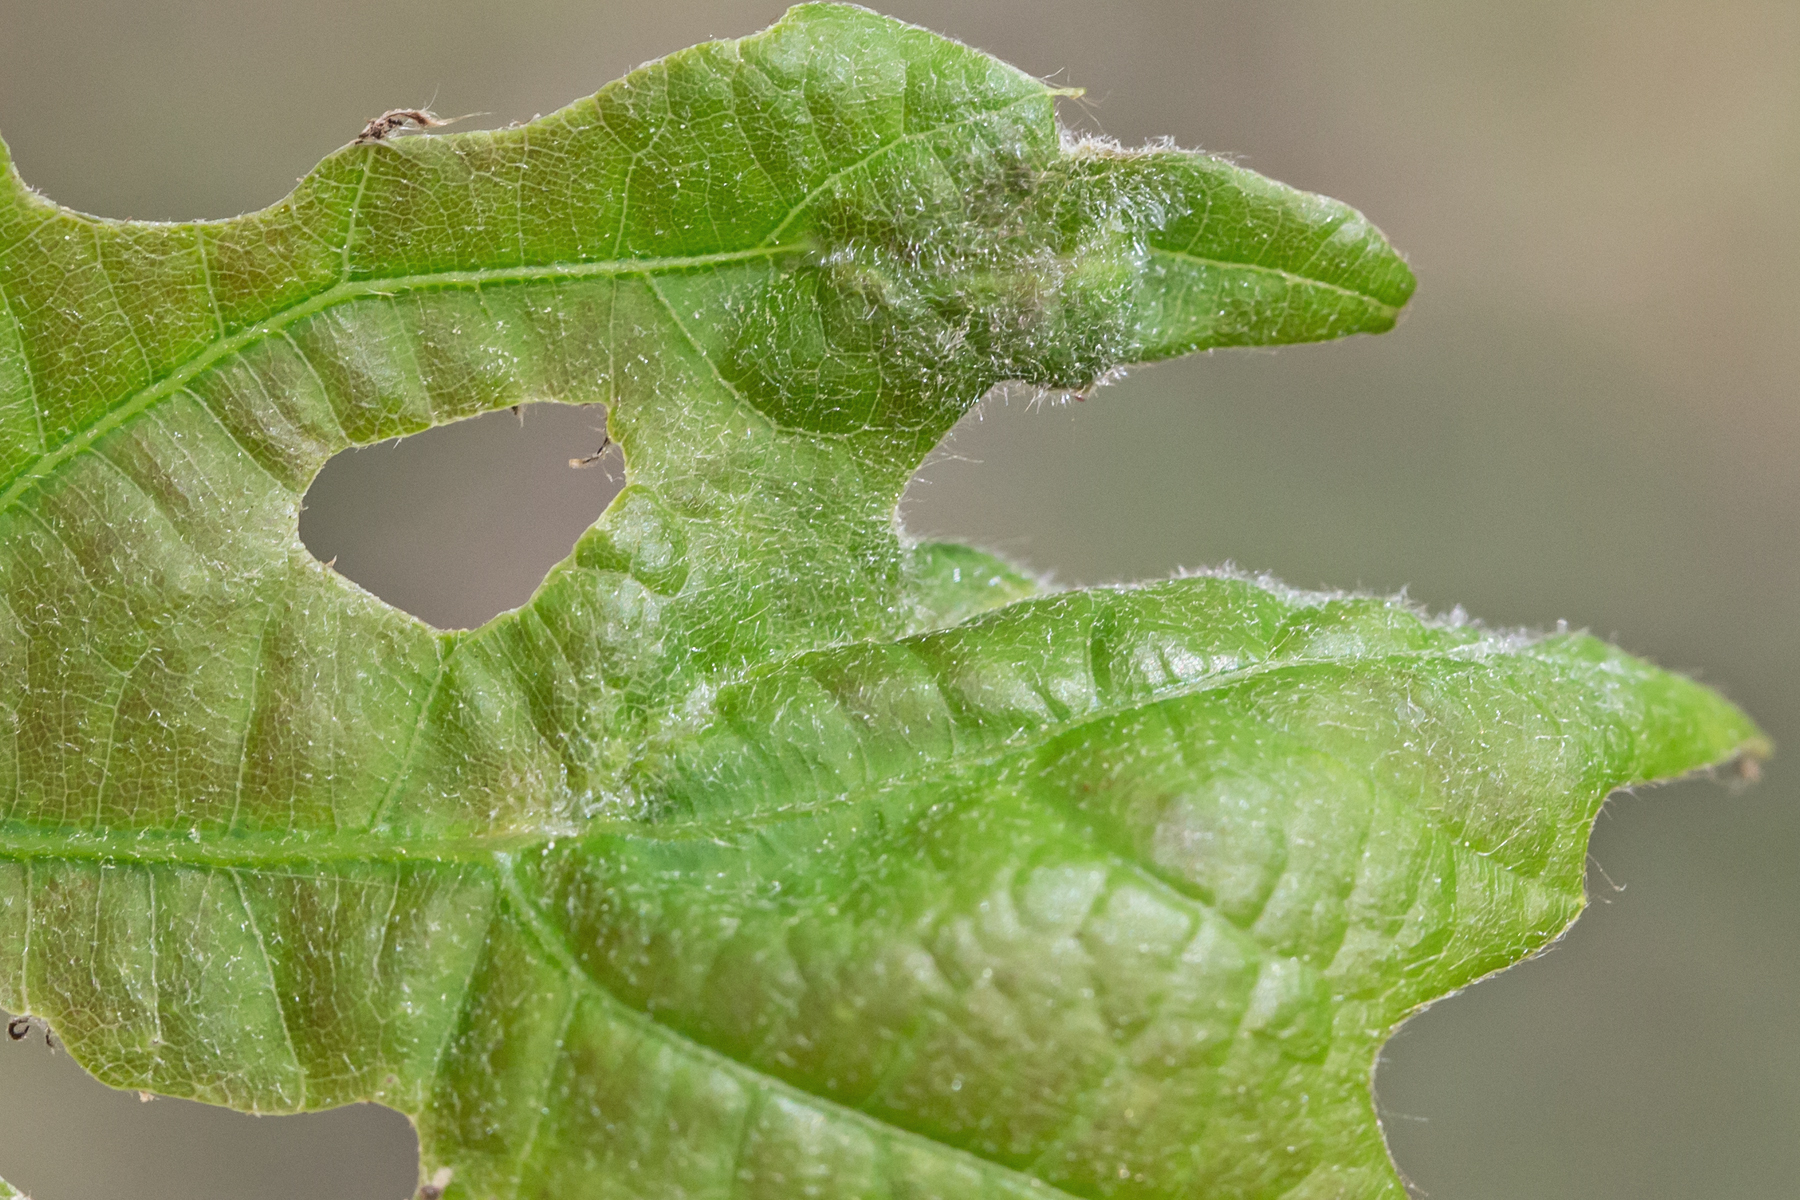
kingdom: Animalia
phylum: Arthropoda
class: Insecta
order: Diptera
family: Cecidomyiidae
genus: Macrodiplosis
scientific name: Macrodiplosis niveipila
